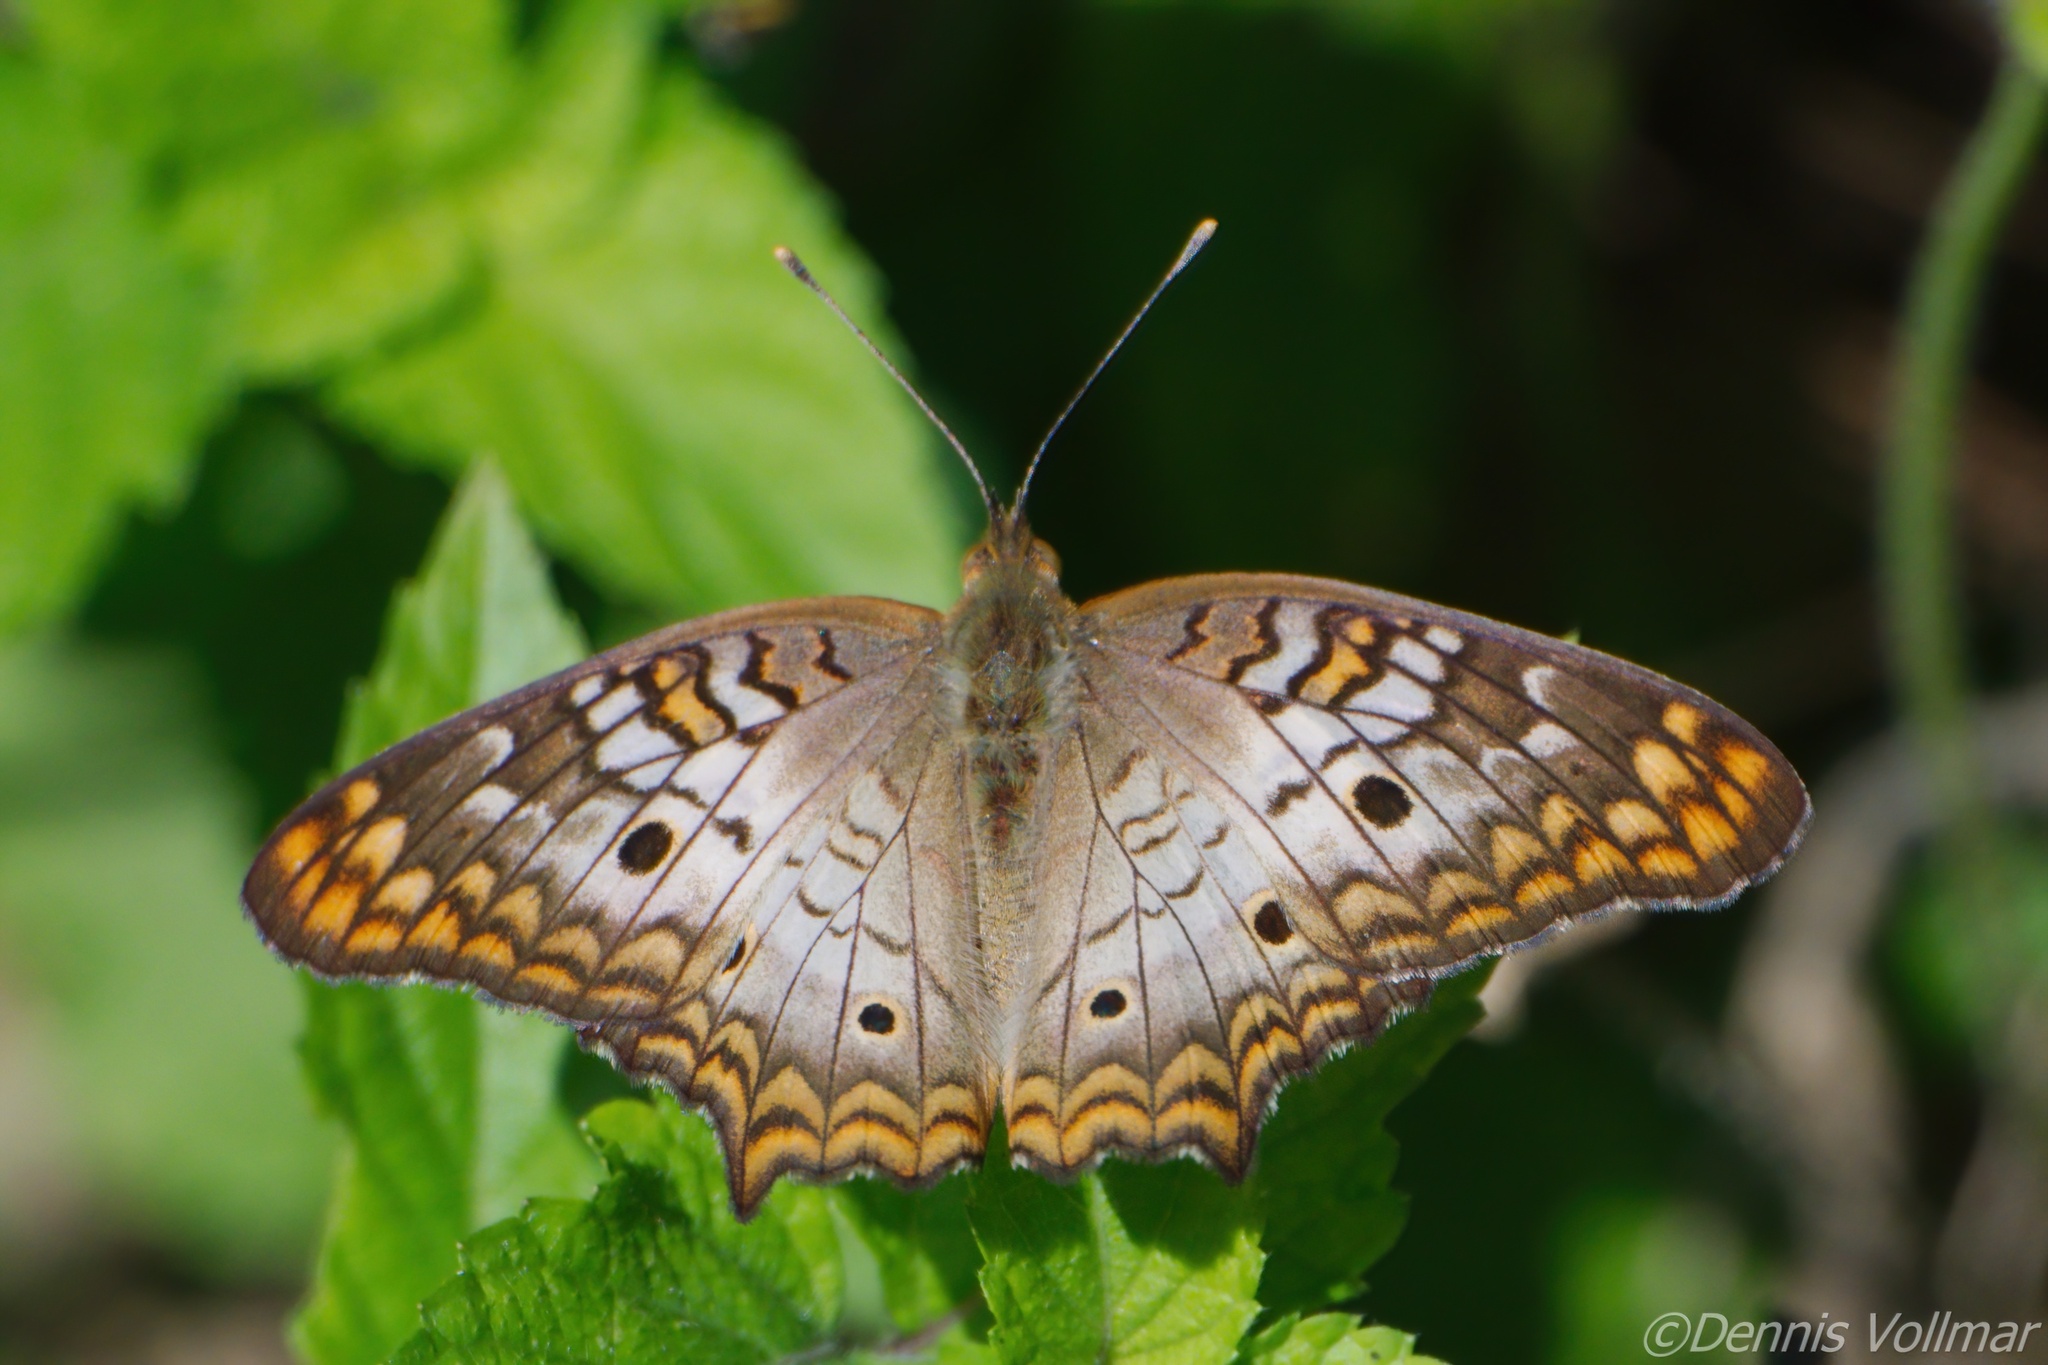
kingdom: Animalia
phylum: Arthropoda
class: Insecta
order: Lepidoptera
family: Nymphalidae
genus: Anartia
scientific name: Anartia jatrophae
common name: White peacock
